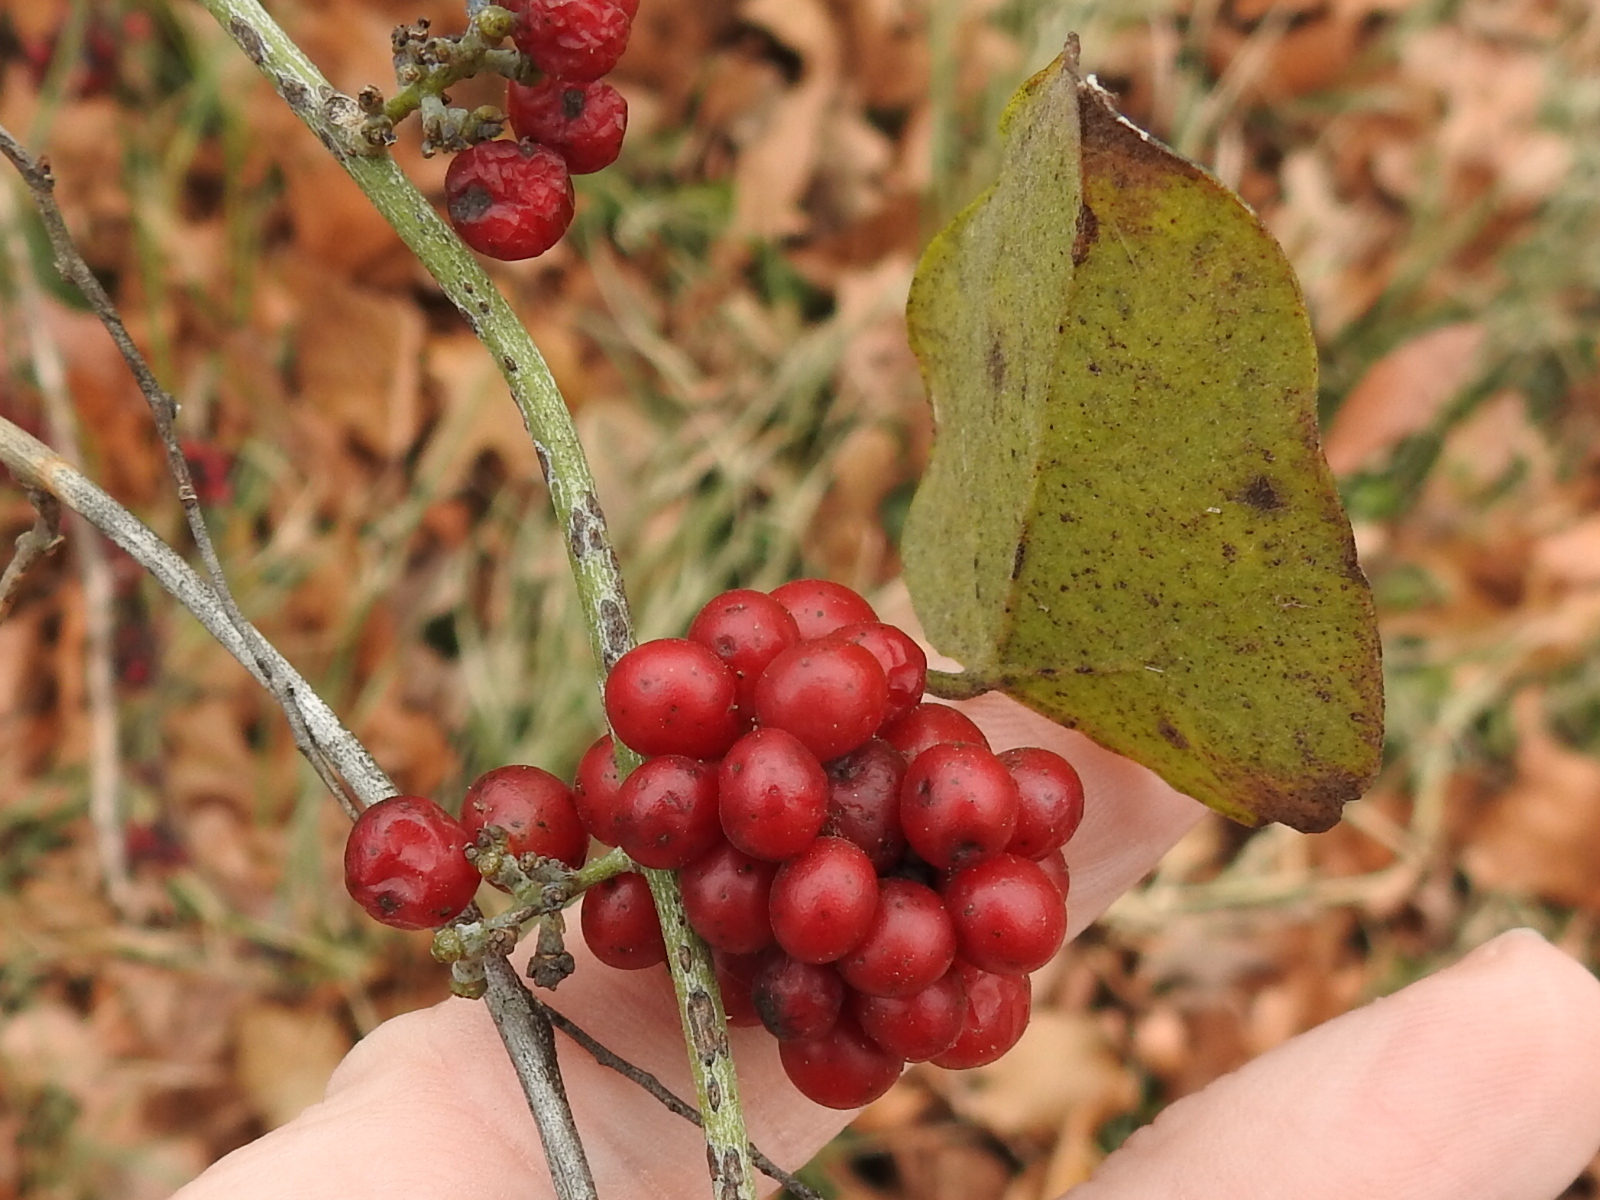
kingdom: Plantae
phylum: Tracheophyta
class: Magnoliopsida
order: Ranunculales
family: Menispermaceae
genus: Cocculus
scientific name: Cocculus carolinus
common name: Carolina moonseed
